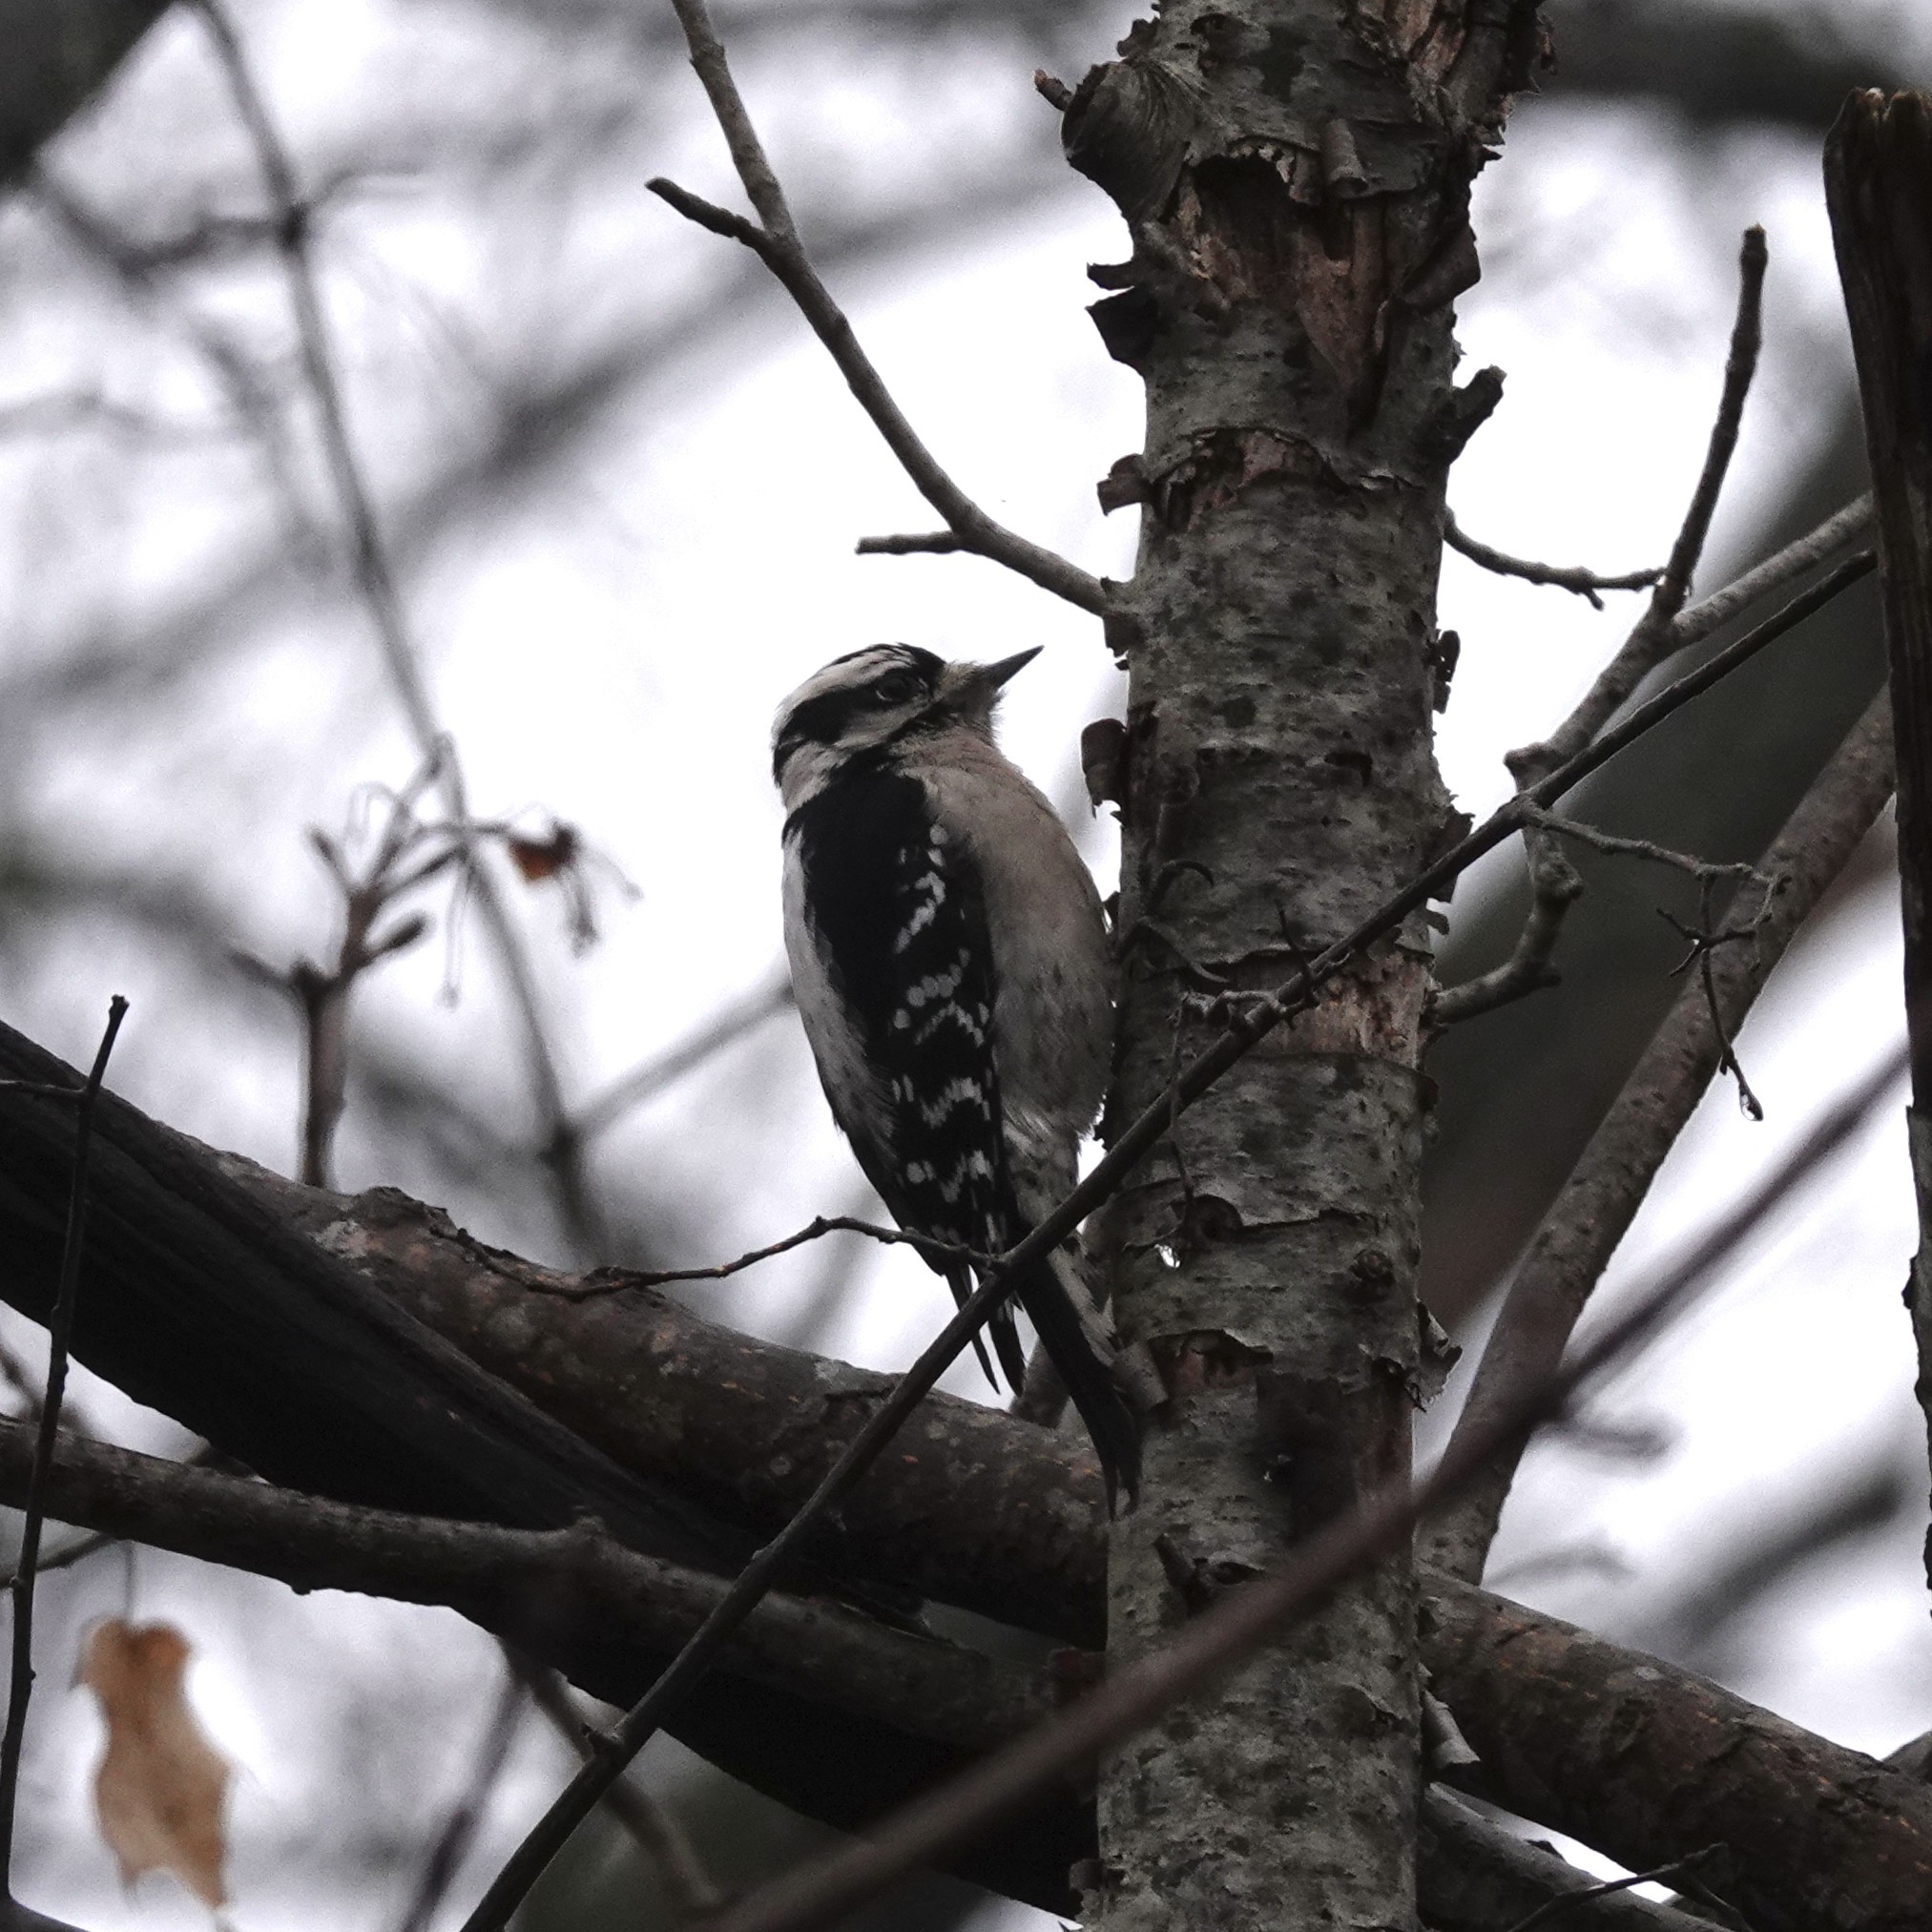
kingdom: Animalia
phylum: Chordata
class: Aves
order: Piciformes
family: Picidae
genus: Dryobates
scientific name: Dryobates pubescens
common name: Downy woodpecker
